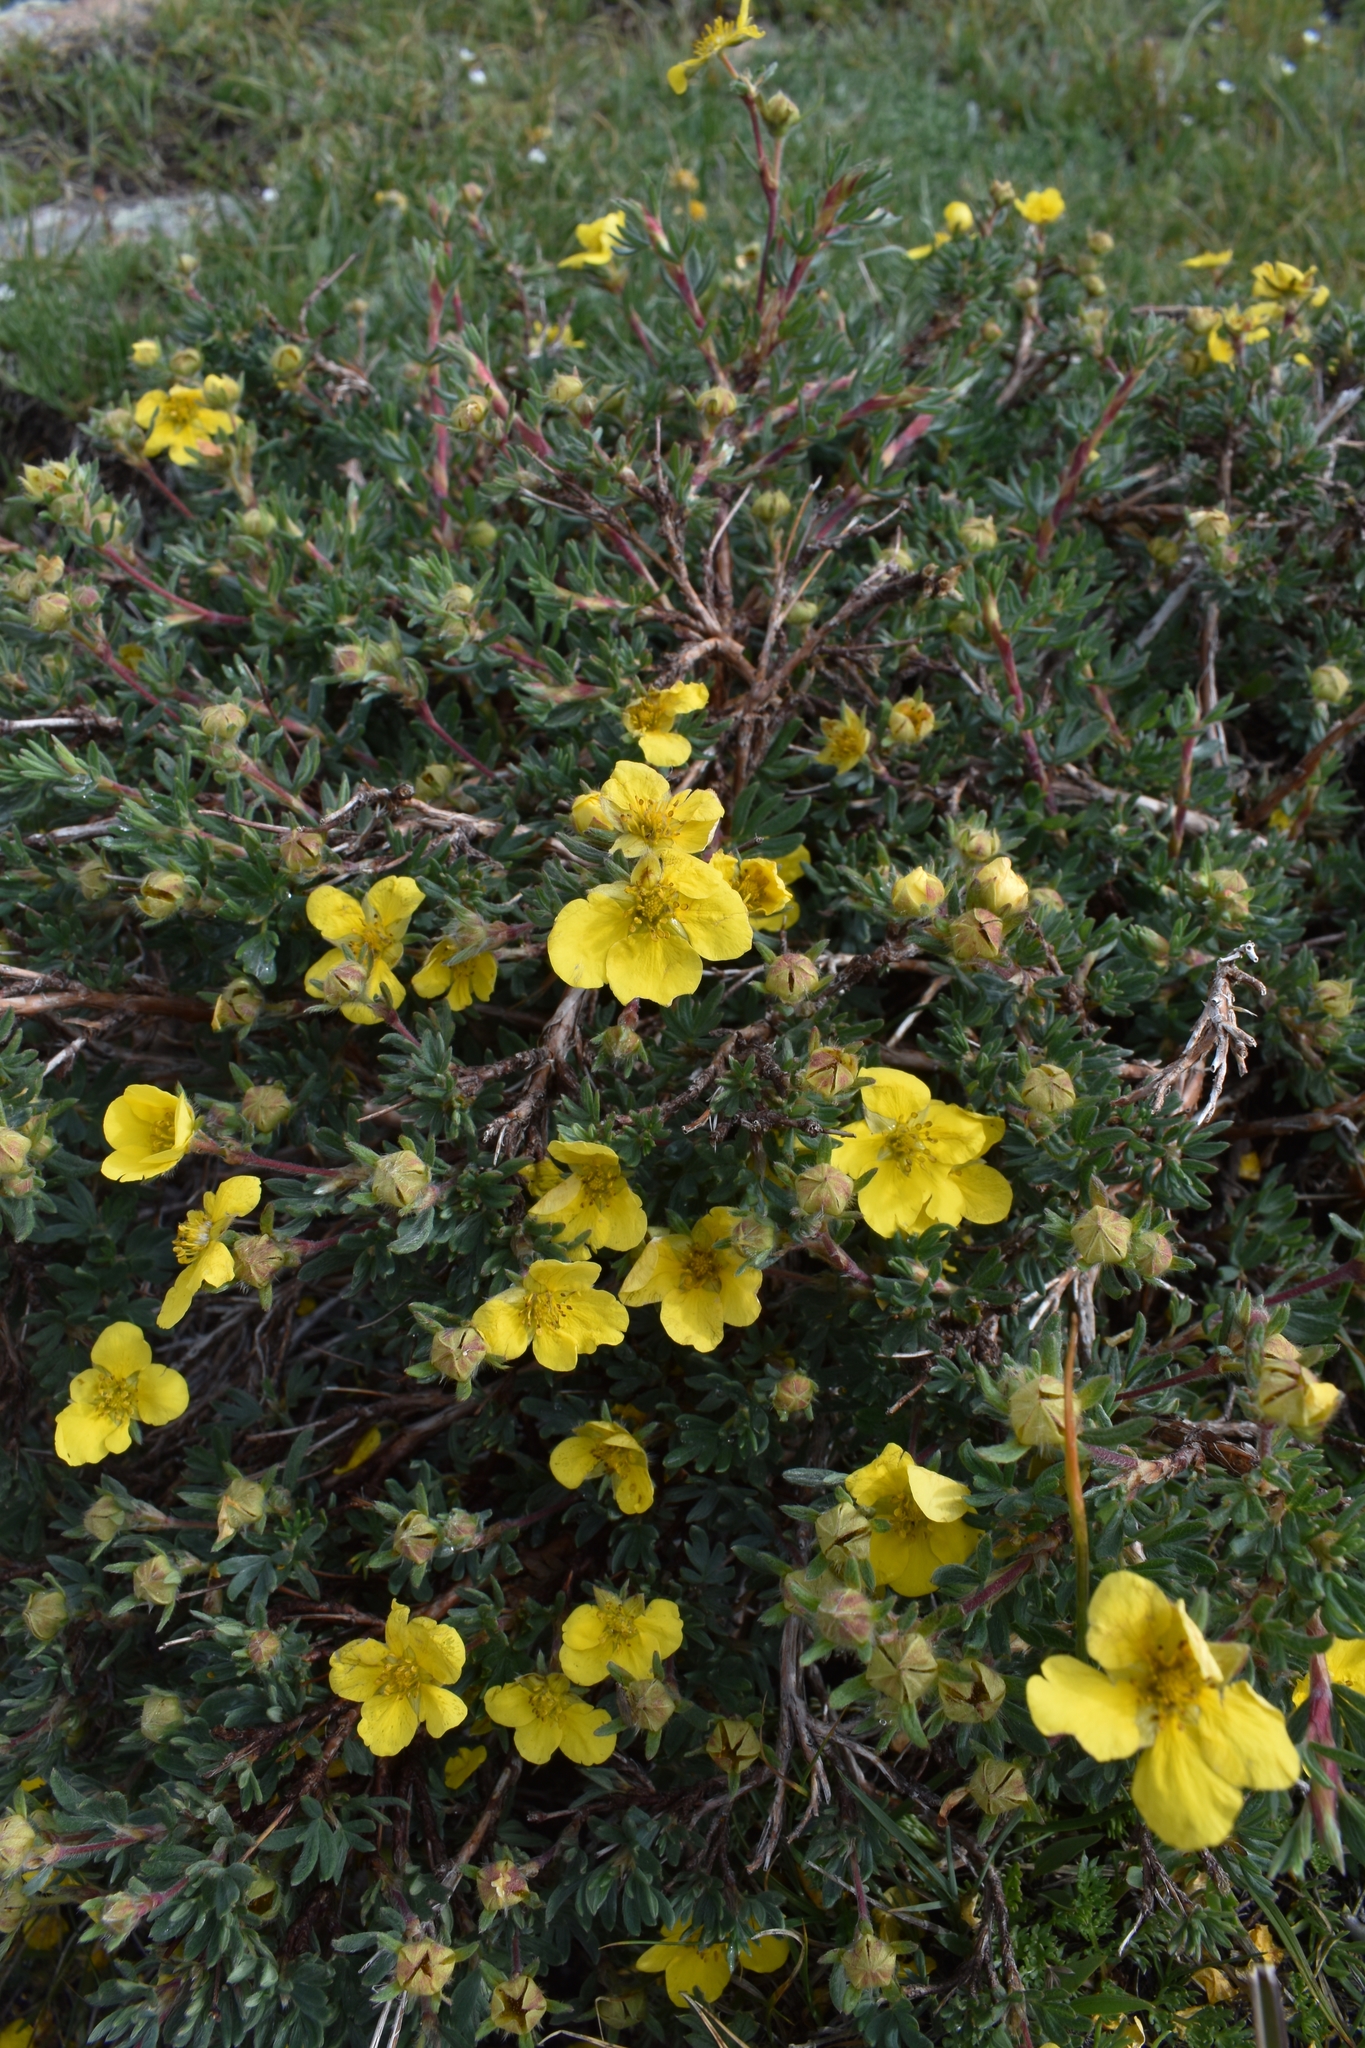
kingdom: Plantae
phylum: Tracheophyta
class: Magnoliopsida
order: Rosales
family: Rosaceae
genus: Dasiphora
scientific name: Dasiphora fruticosa
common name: Shrubby cinquefoil
